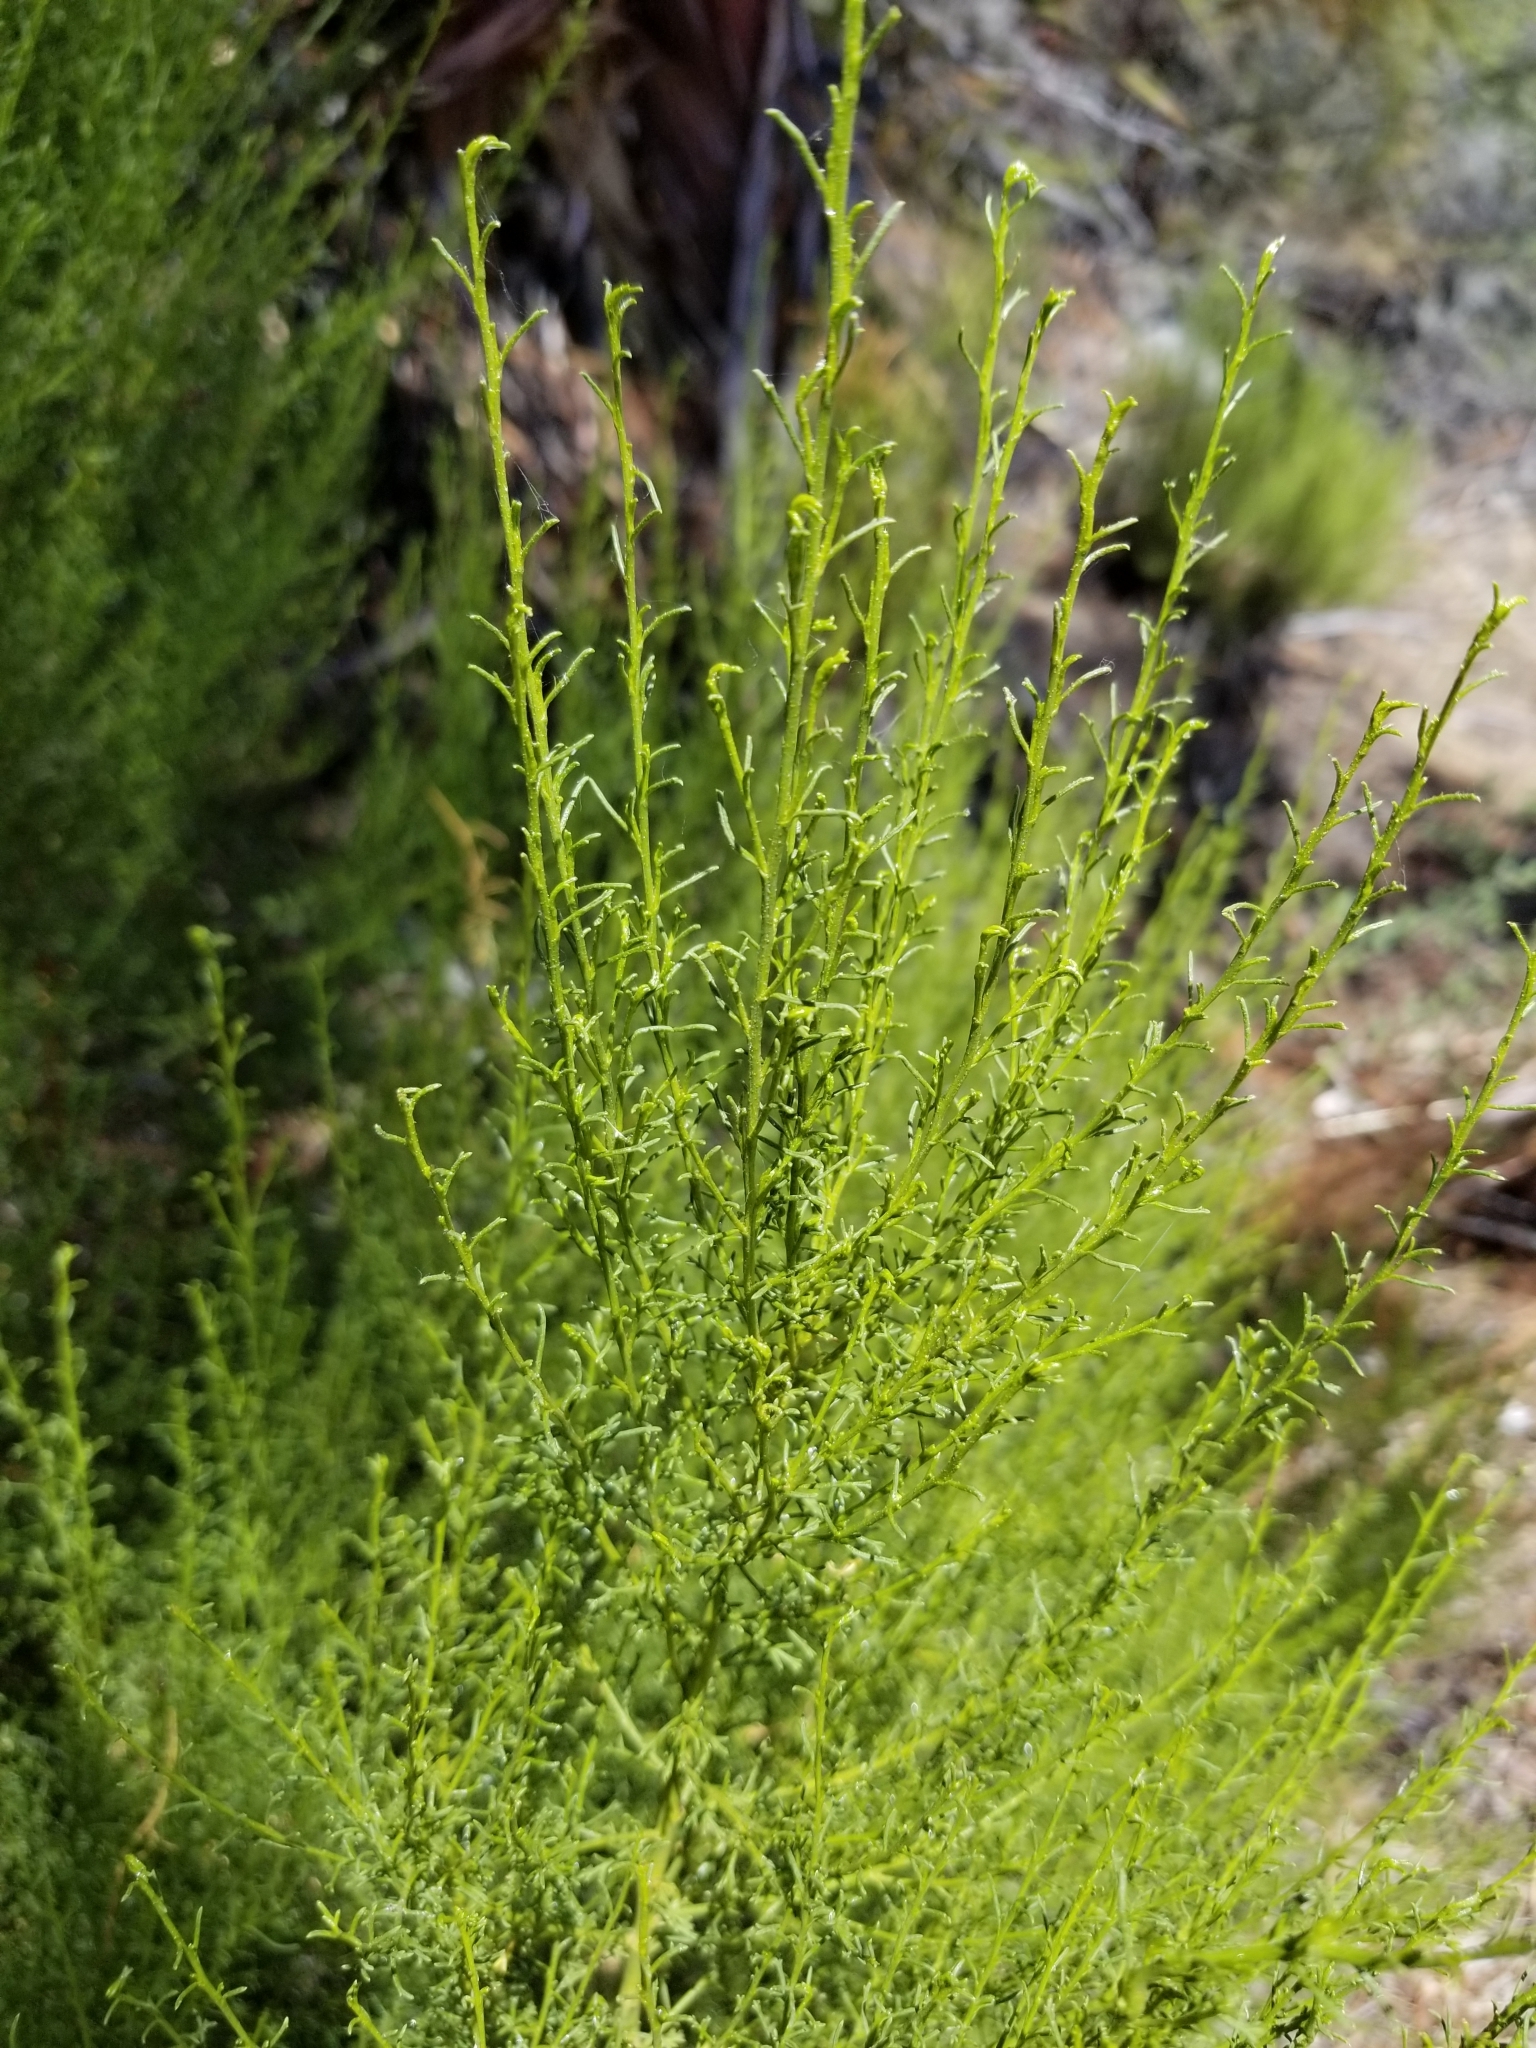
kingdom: Plantae
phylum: Tracheophyta
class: Magnoliopsida
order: Rosales
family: Rosaceae
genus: Adenostoma
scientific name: Adenostoma sparsifolium
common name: Red shank
